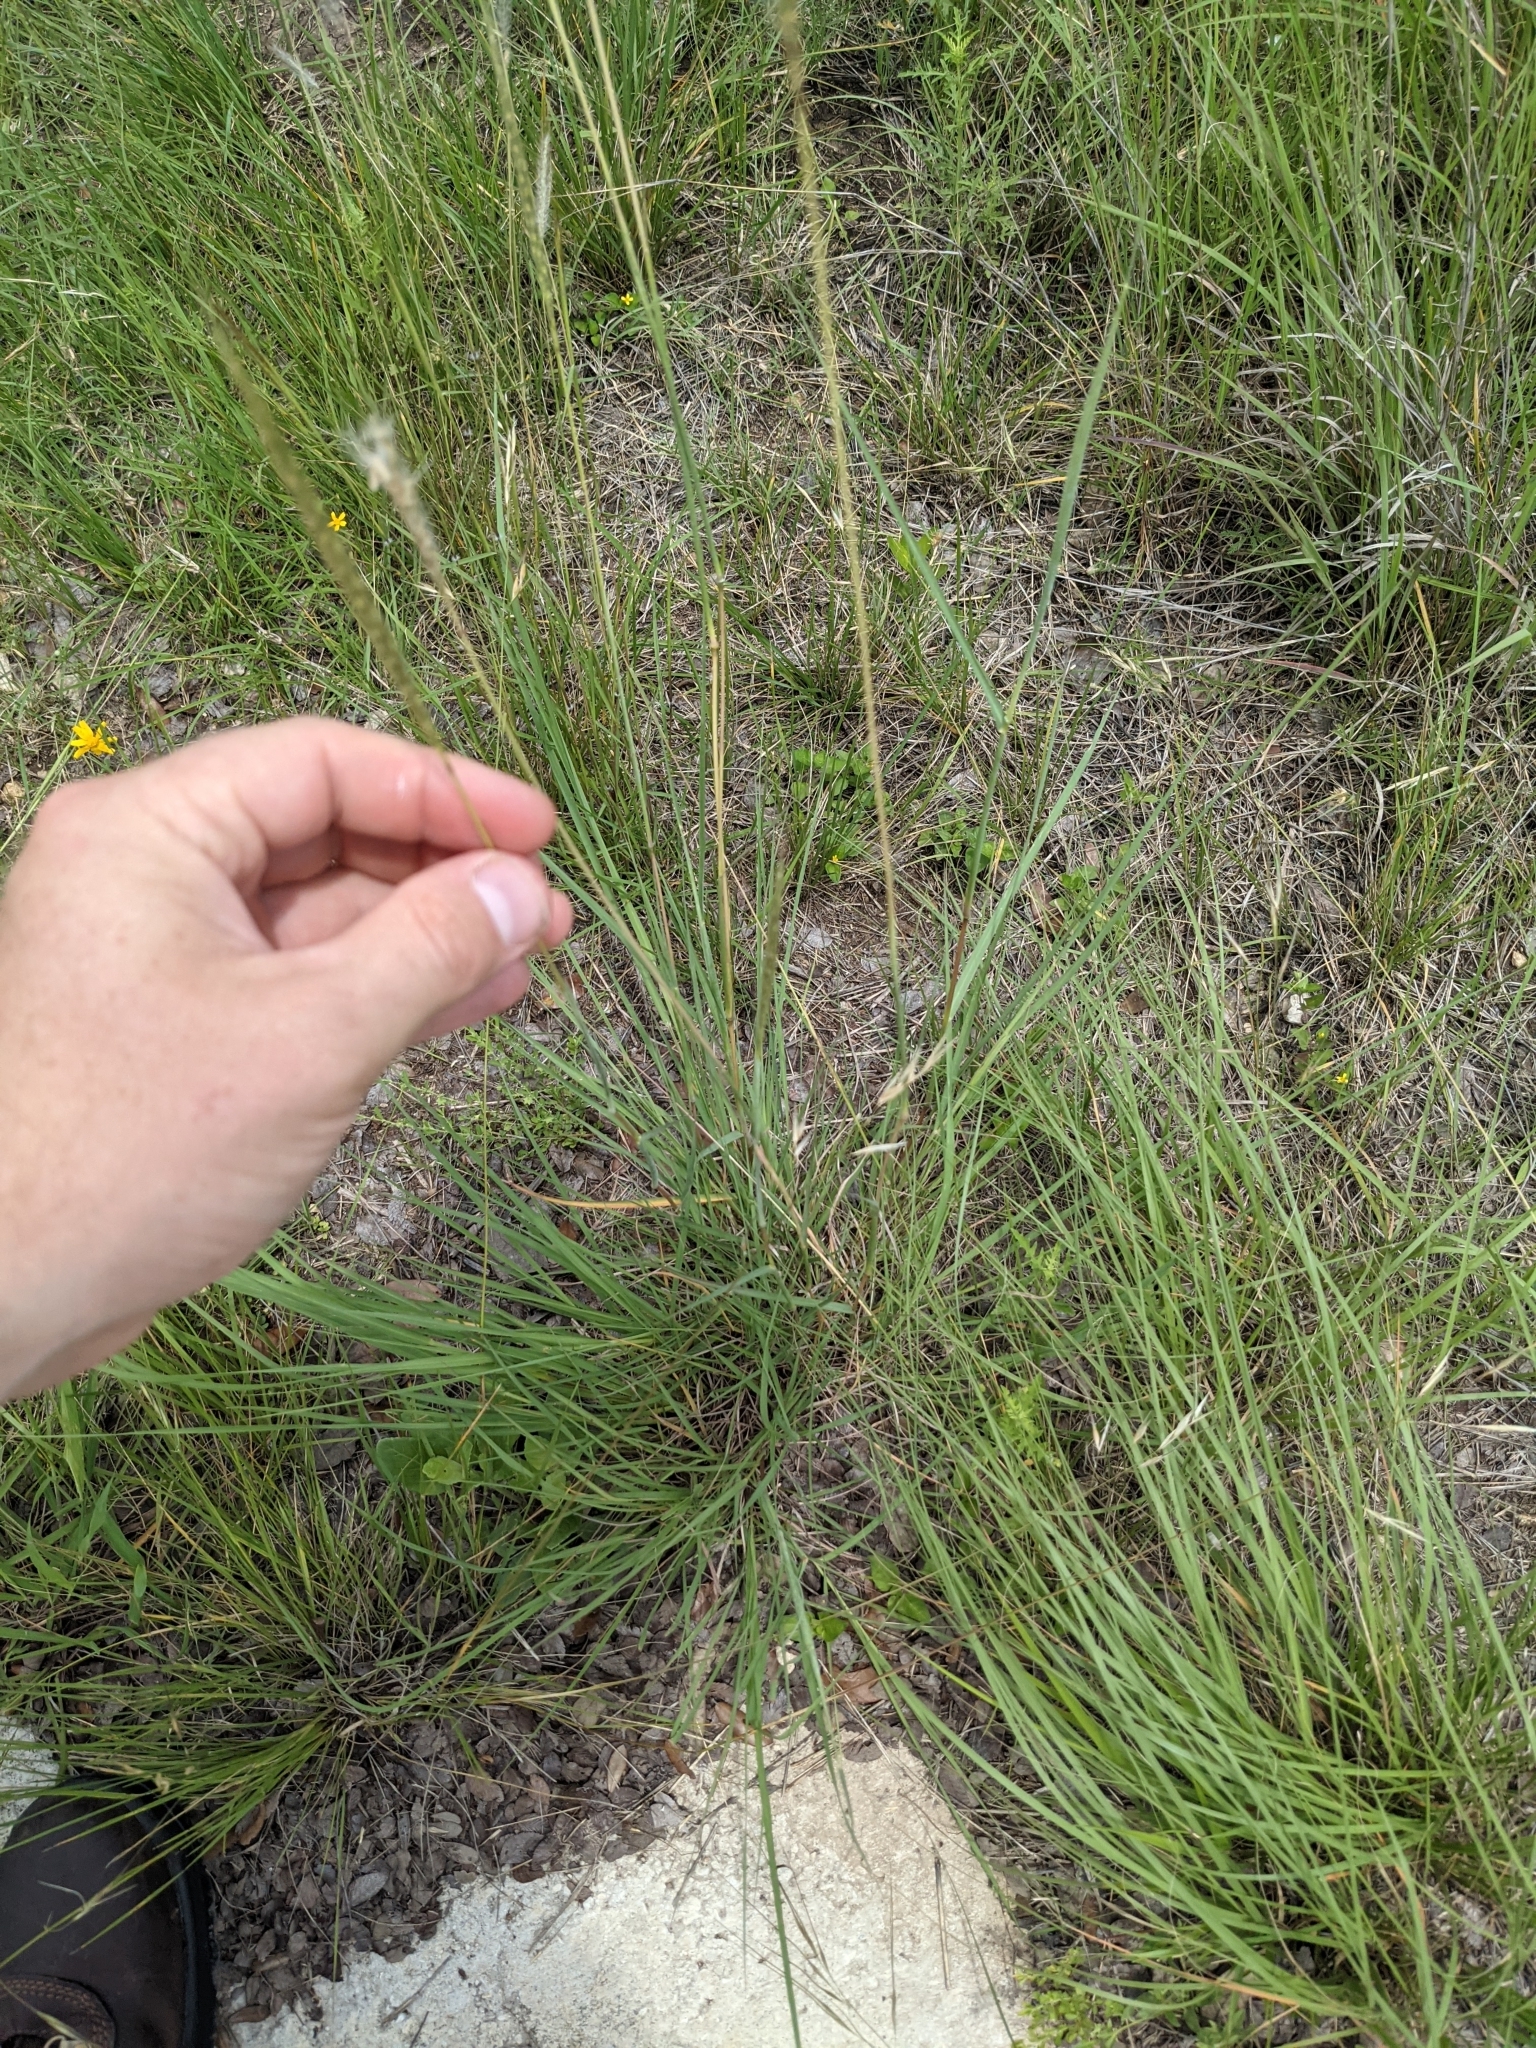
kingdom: Plantae
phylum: Tracheophyta
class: Liliopsida
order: Poales
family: Poaceae
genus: Bothriochloa
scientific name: Bothriochloa barbinodis
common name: Cane bluestem
